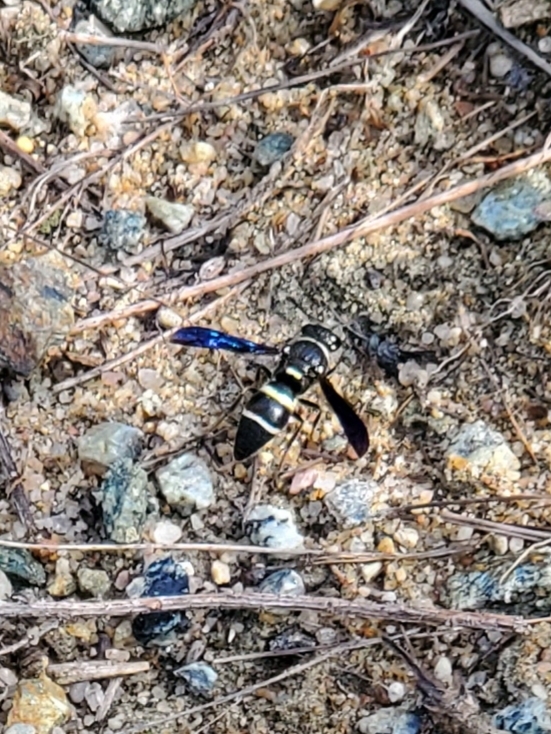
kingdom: Animalia
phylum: Arthropoda
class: Insecta
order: Hymenoptera
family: Eumenidae
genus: Euodynerus
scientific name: Euodynerus megaera
